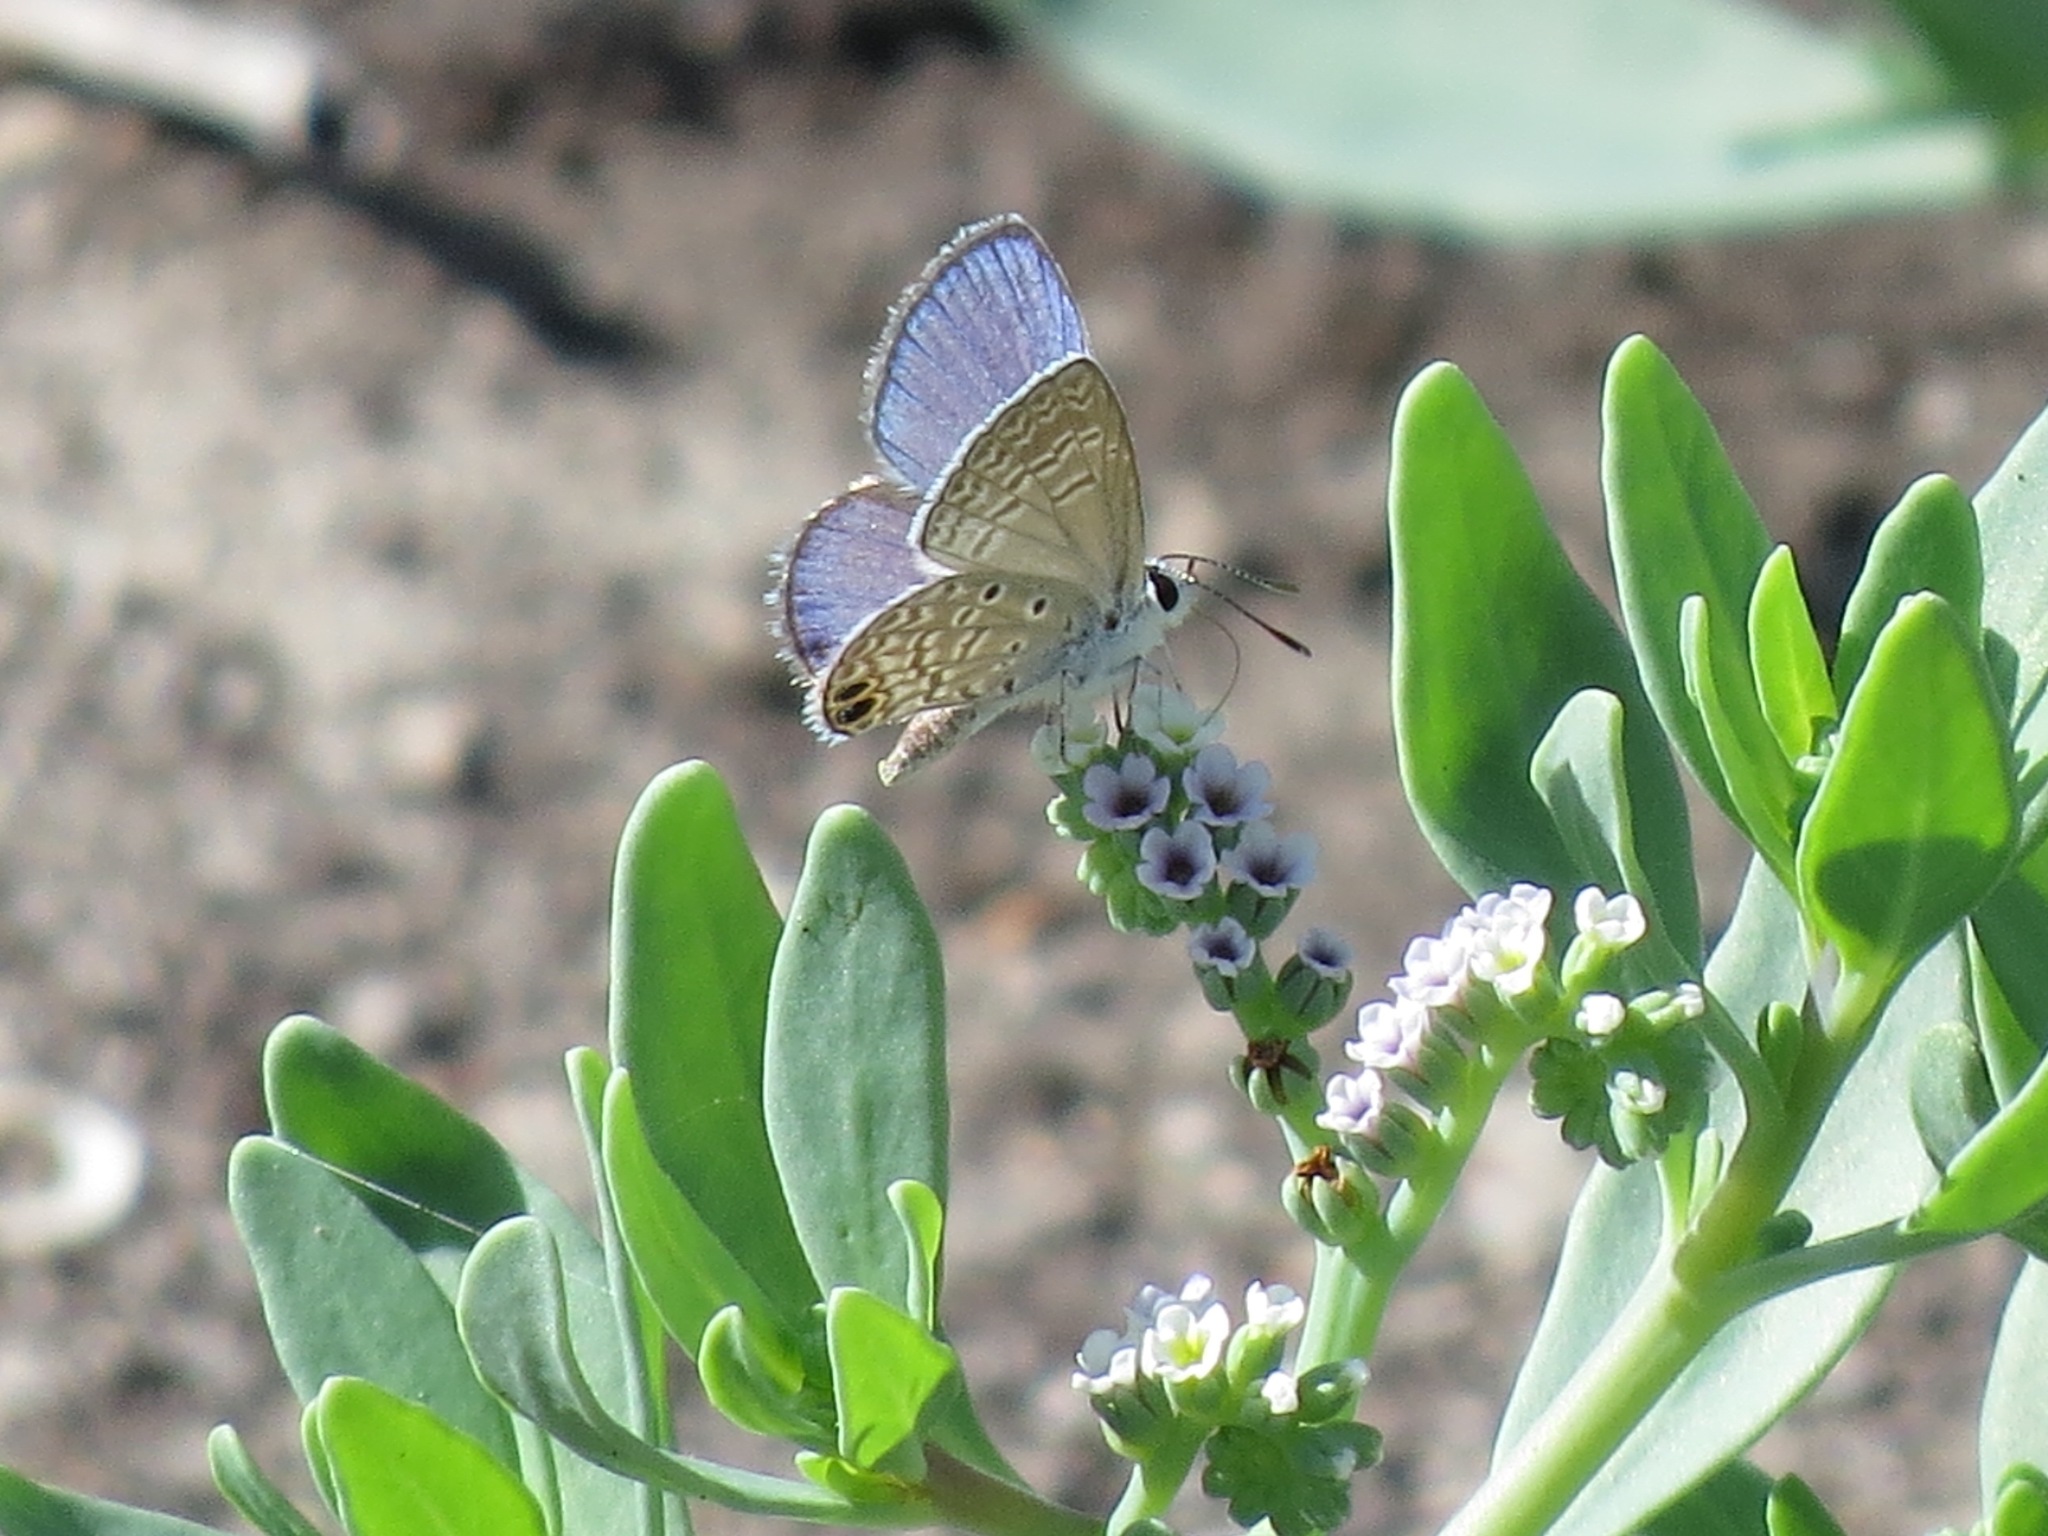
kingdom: Animalia
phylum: Arthropoda
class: Insecta
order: Lepidoptera
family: Lycaenidae
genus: Hemiargus
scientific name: Hemiargus ceraunus
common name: Ceraunus blue
